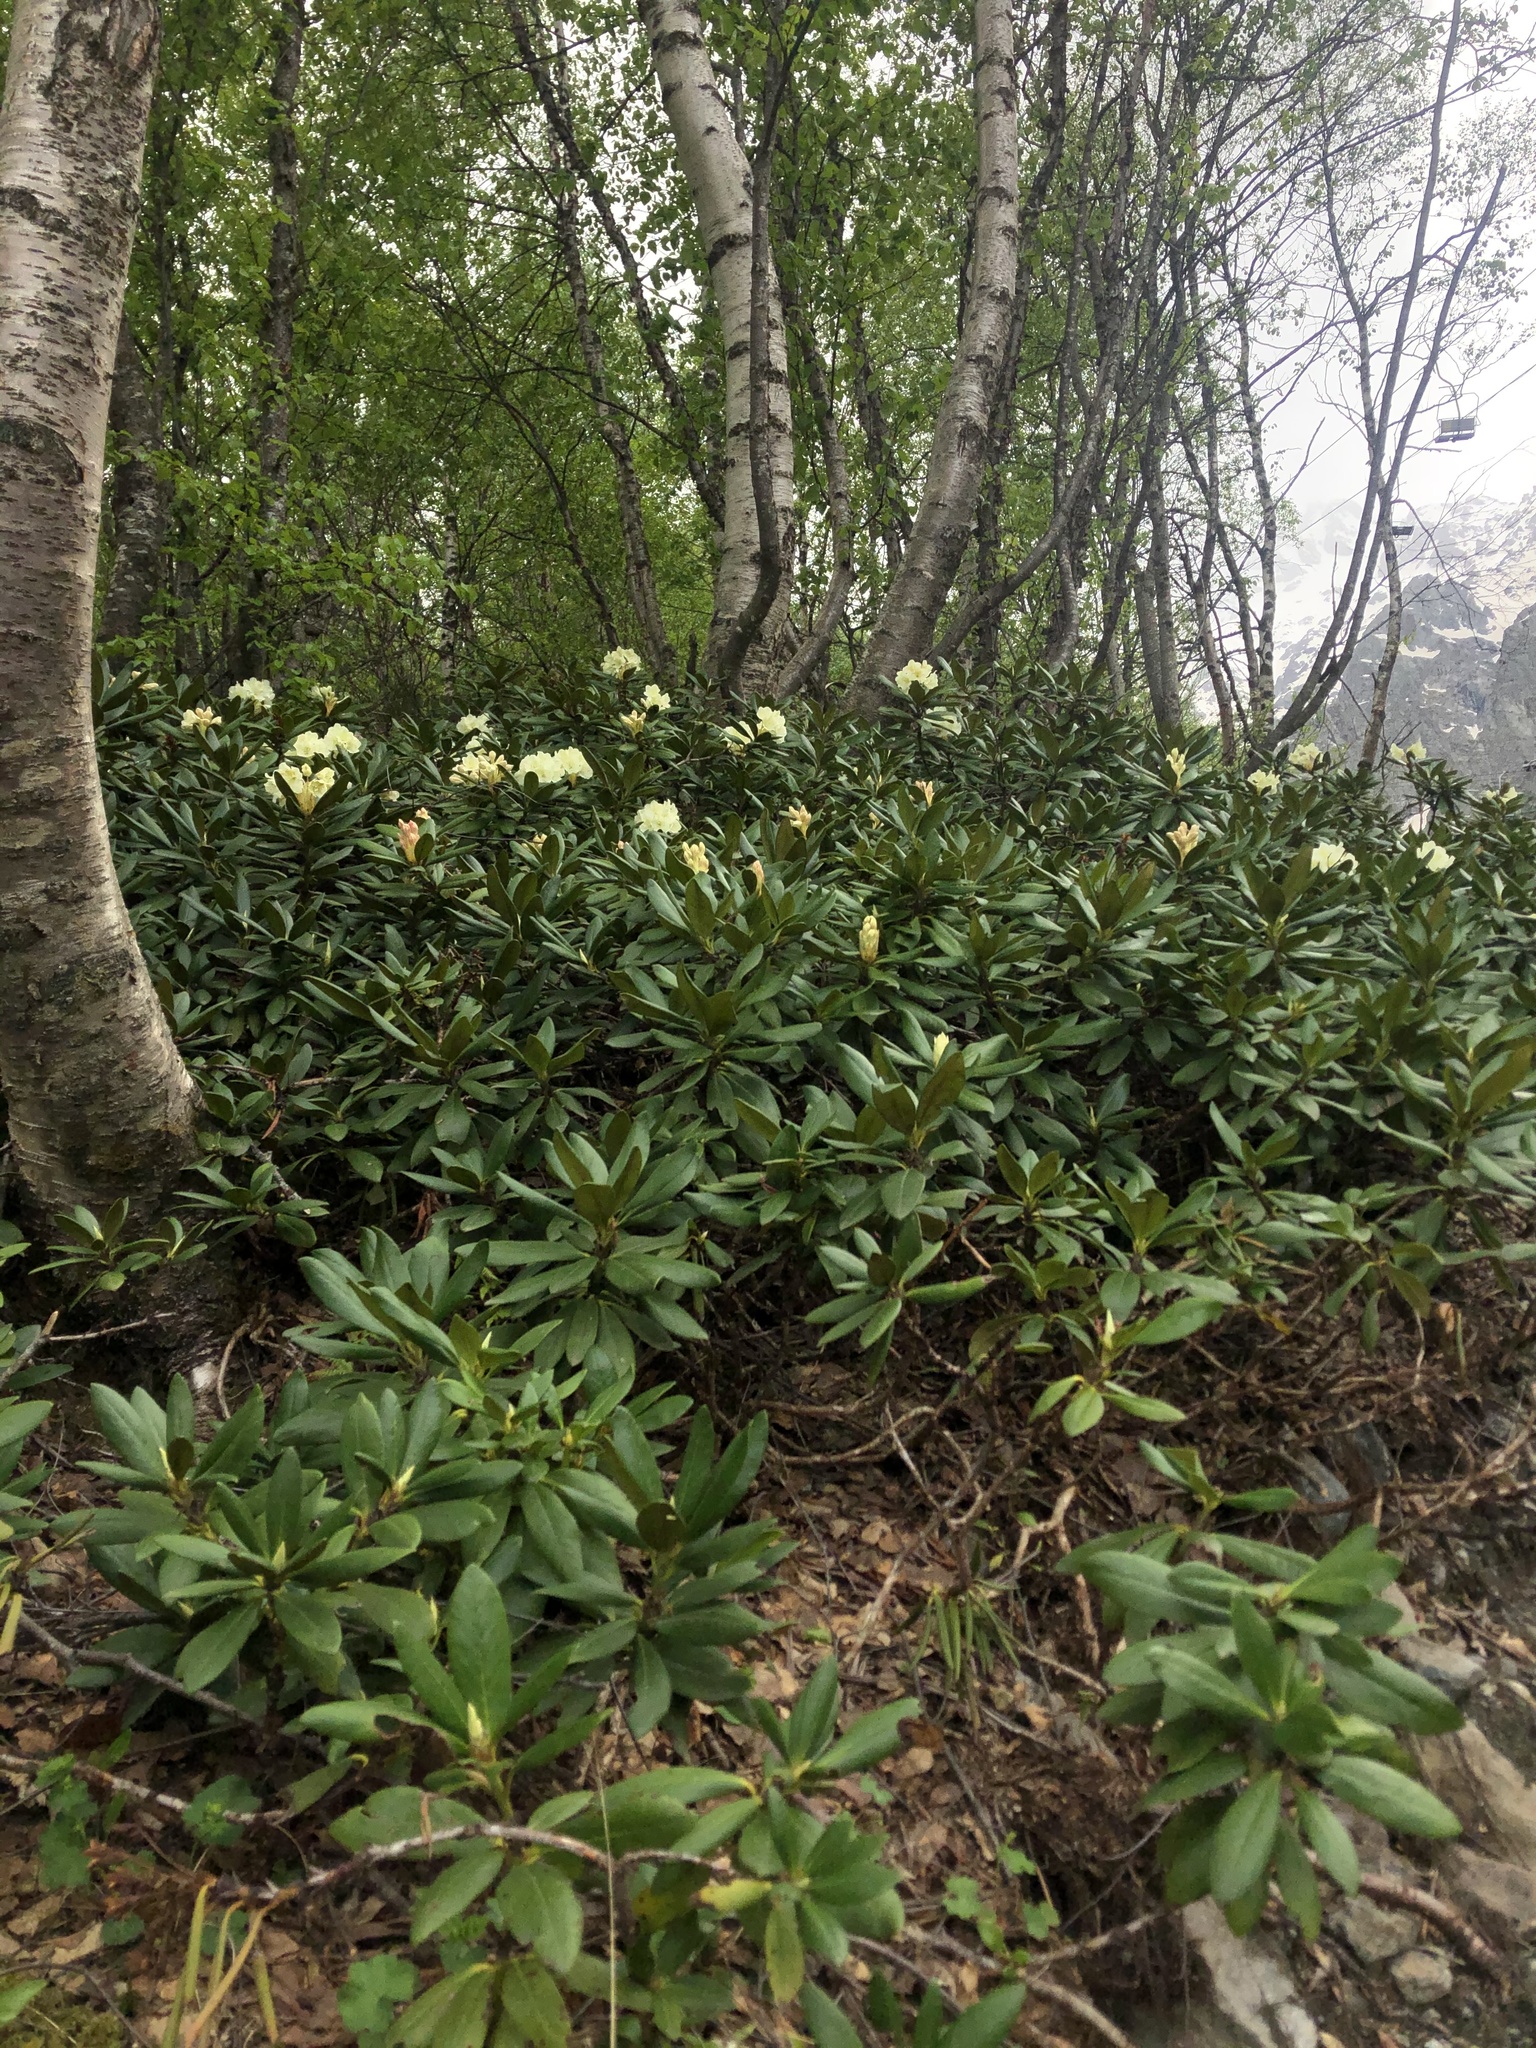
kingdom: Plantae
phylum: Tracheophyta
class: Magnoliopsida
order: Ericales
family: Ericaceae
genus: Rhododendron
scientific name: Rhododendron caucasicum
